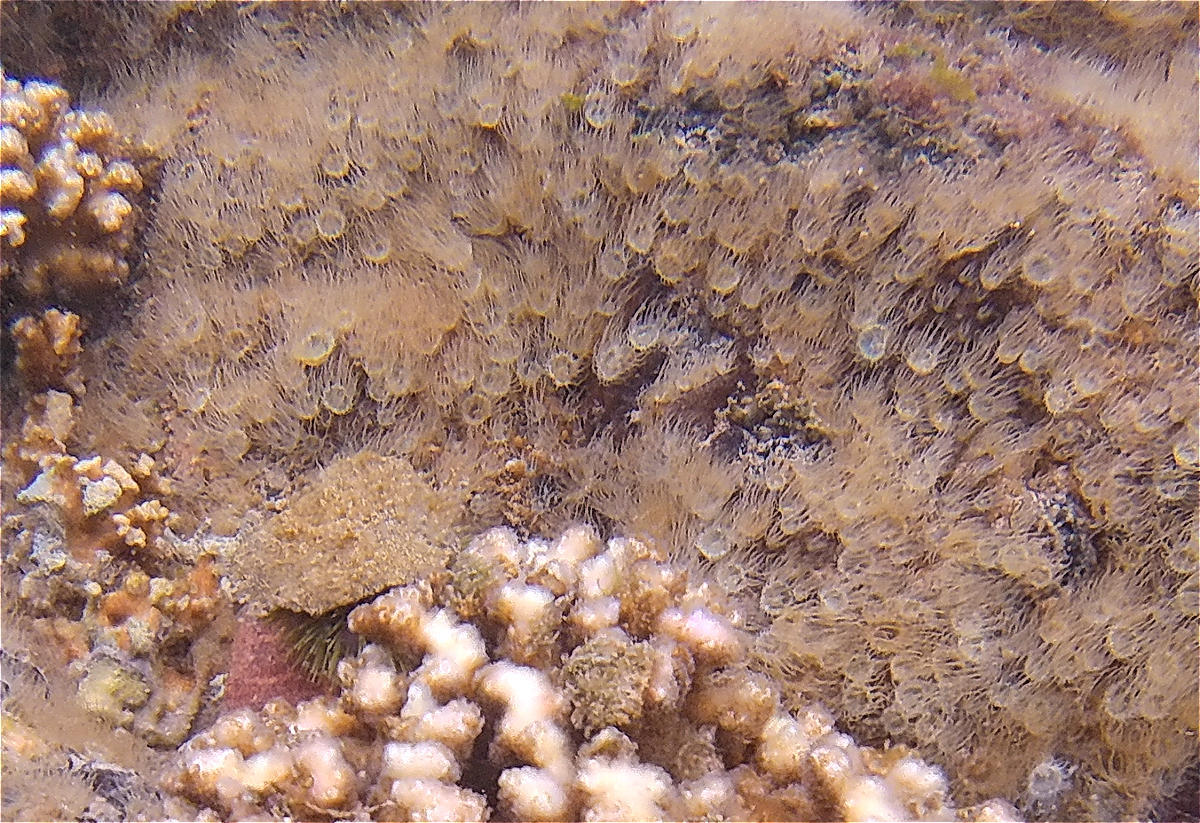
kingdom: Animalia
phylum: Cnidaria
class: Anthozoa
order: Actiniaria
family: Aiptasiidae
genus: Exaiptasia
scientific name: Exaiptasia diaphana
